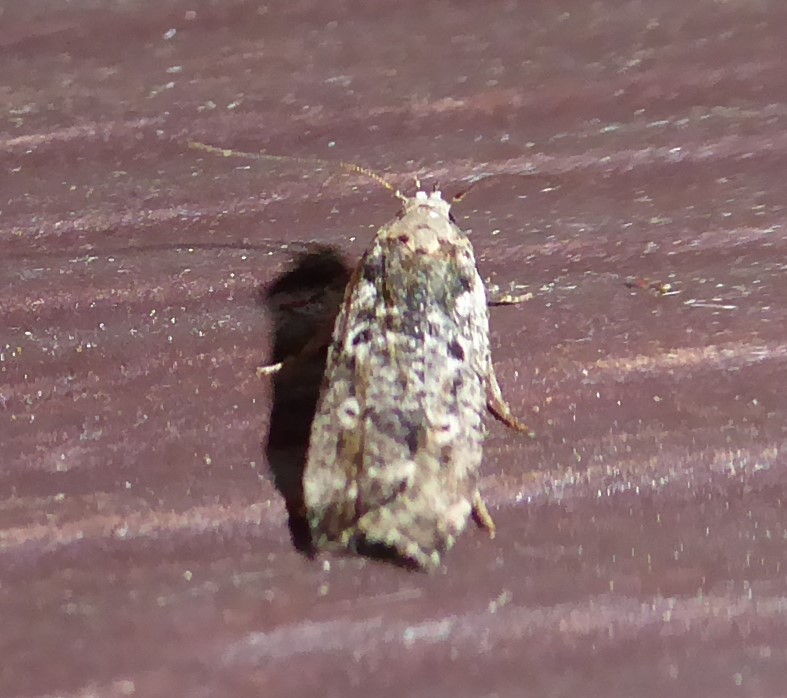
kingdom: Animalia
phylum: Arthropoda
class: Insecta
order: Lepidoptera
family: Tortricidae
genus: Capua
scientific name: Capua intractana
